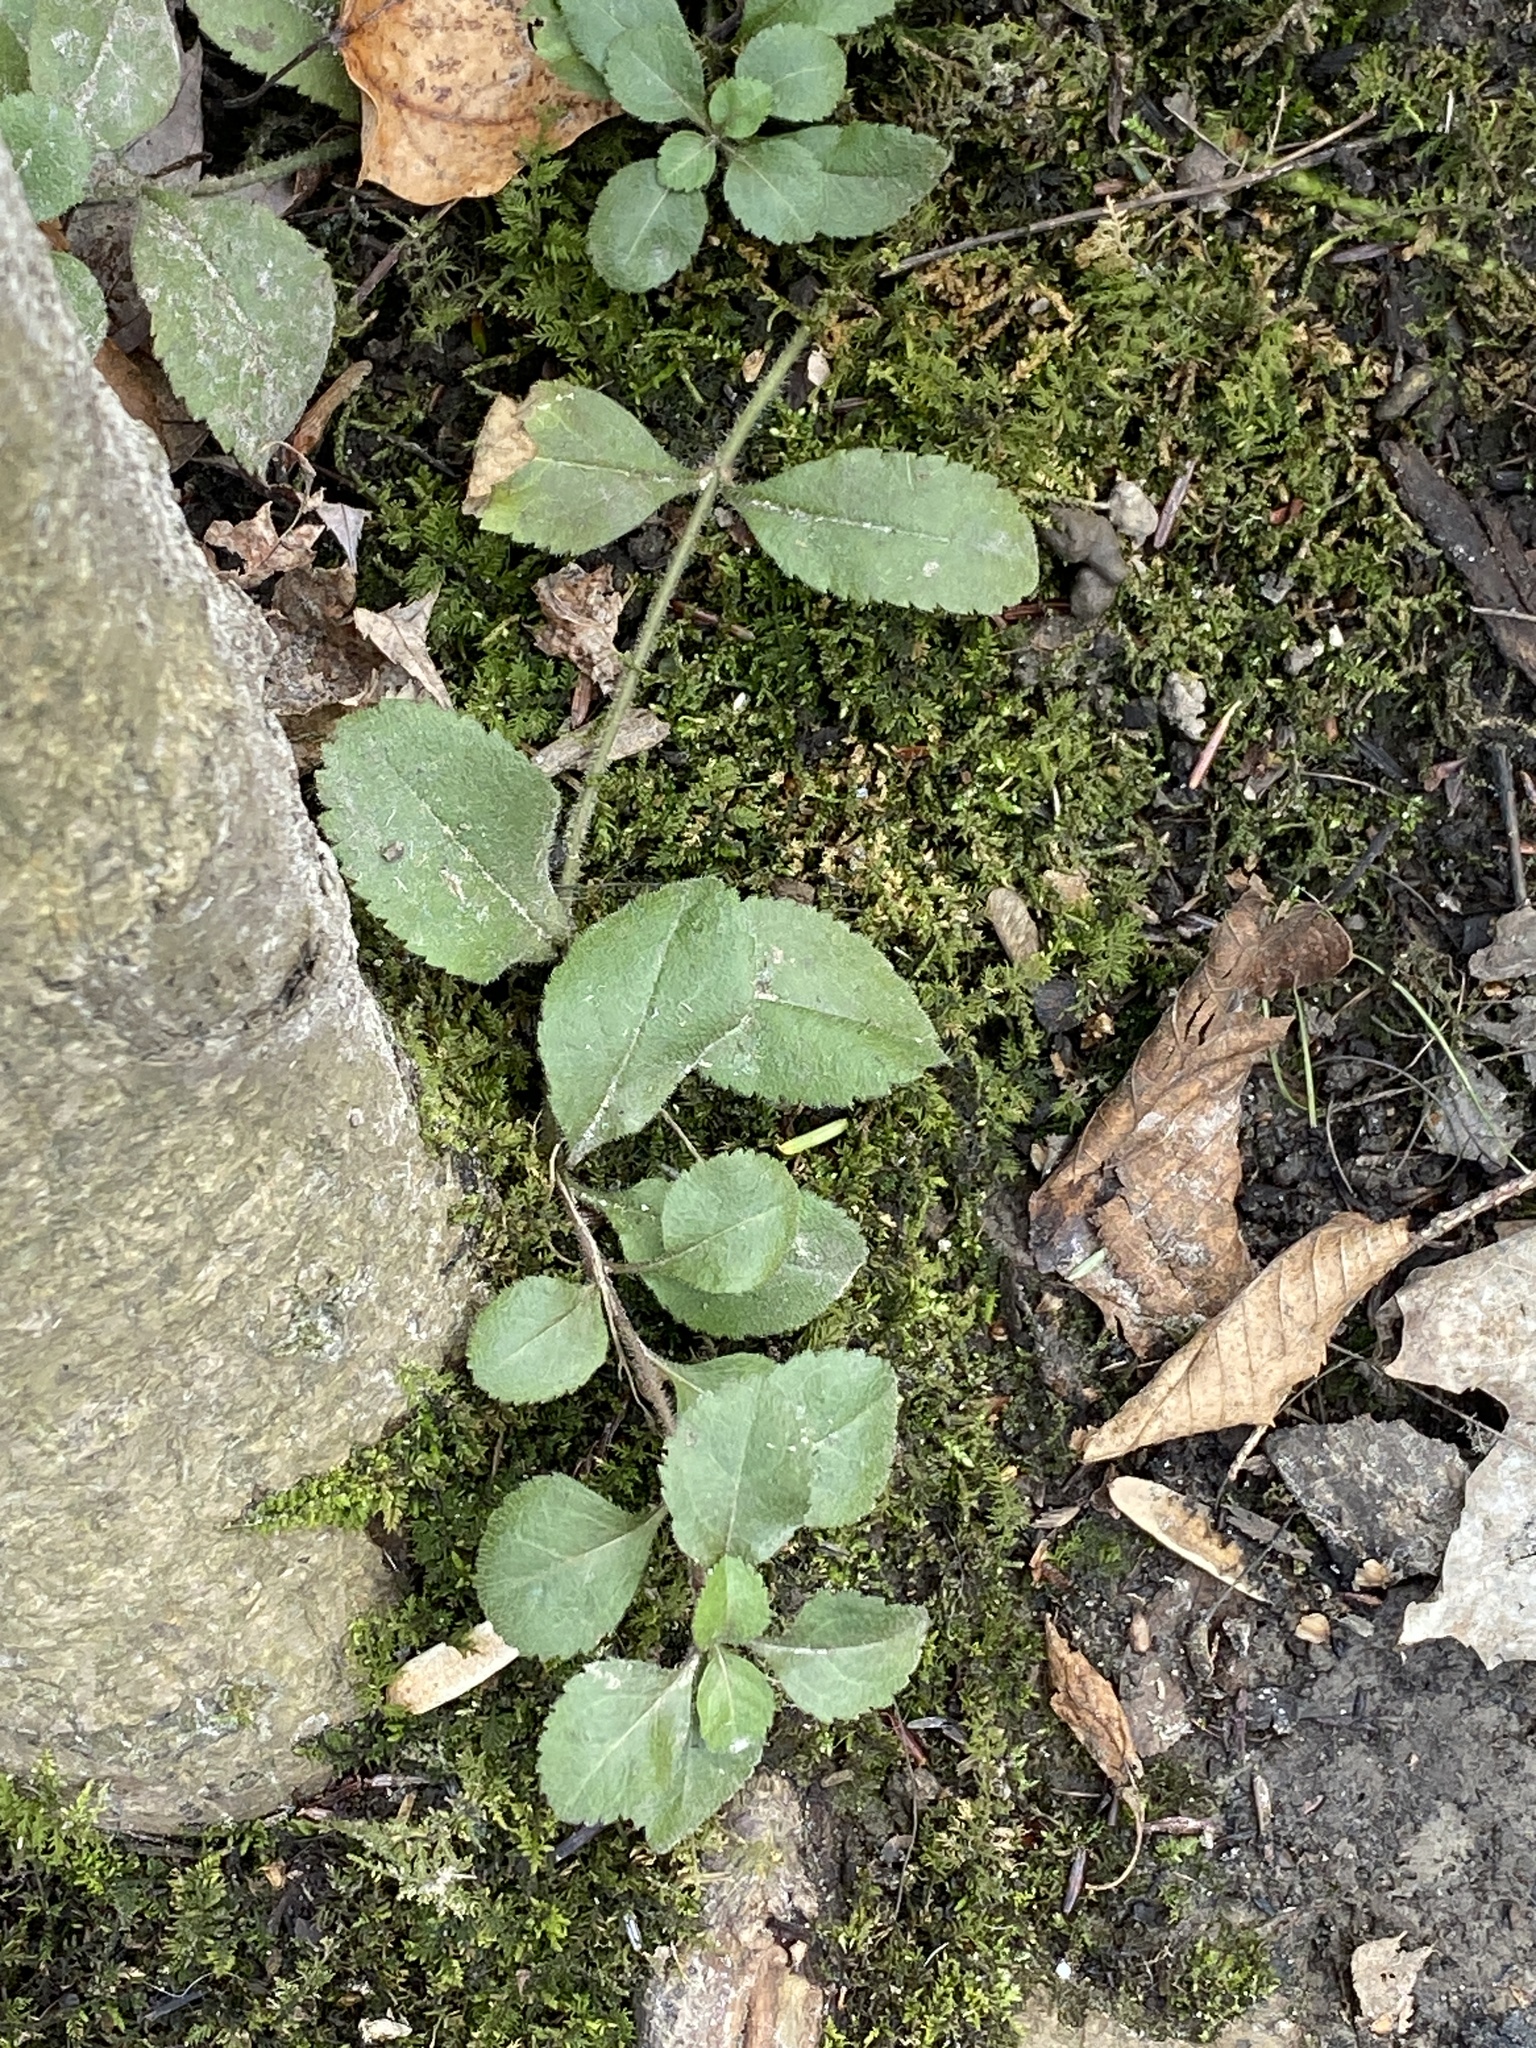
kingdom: Plantae
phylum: Tracheophyta
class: Magnoliopsida
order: Lamiales
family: Plantaginaceae
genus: Veronica
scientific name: Veronica officinalis
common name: Common speedwell
